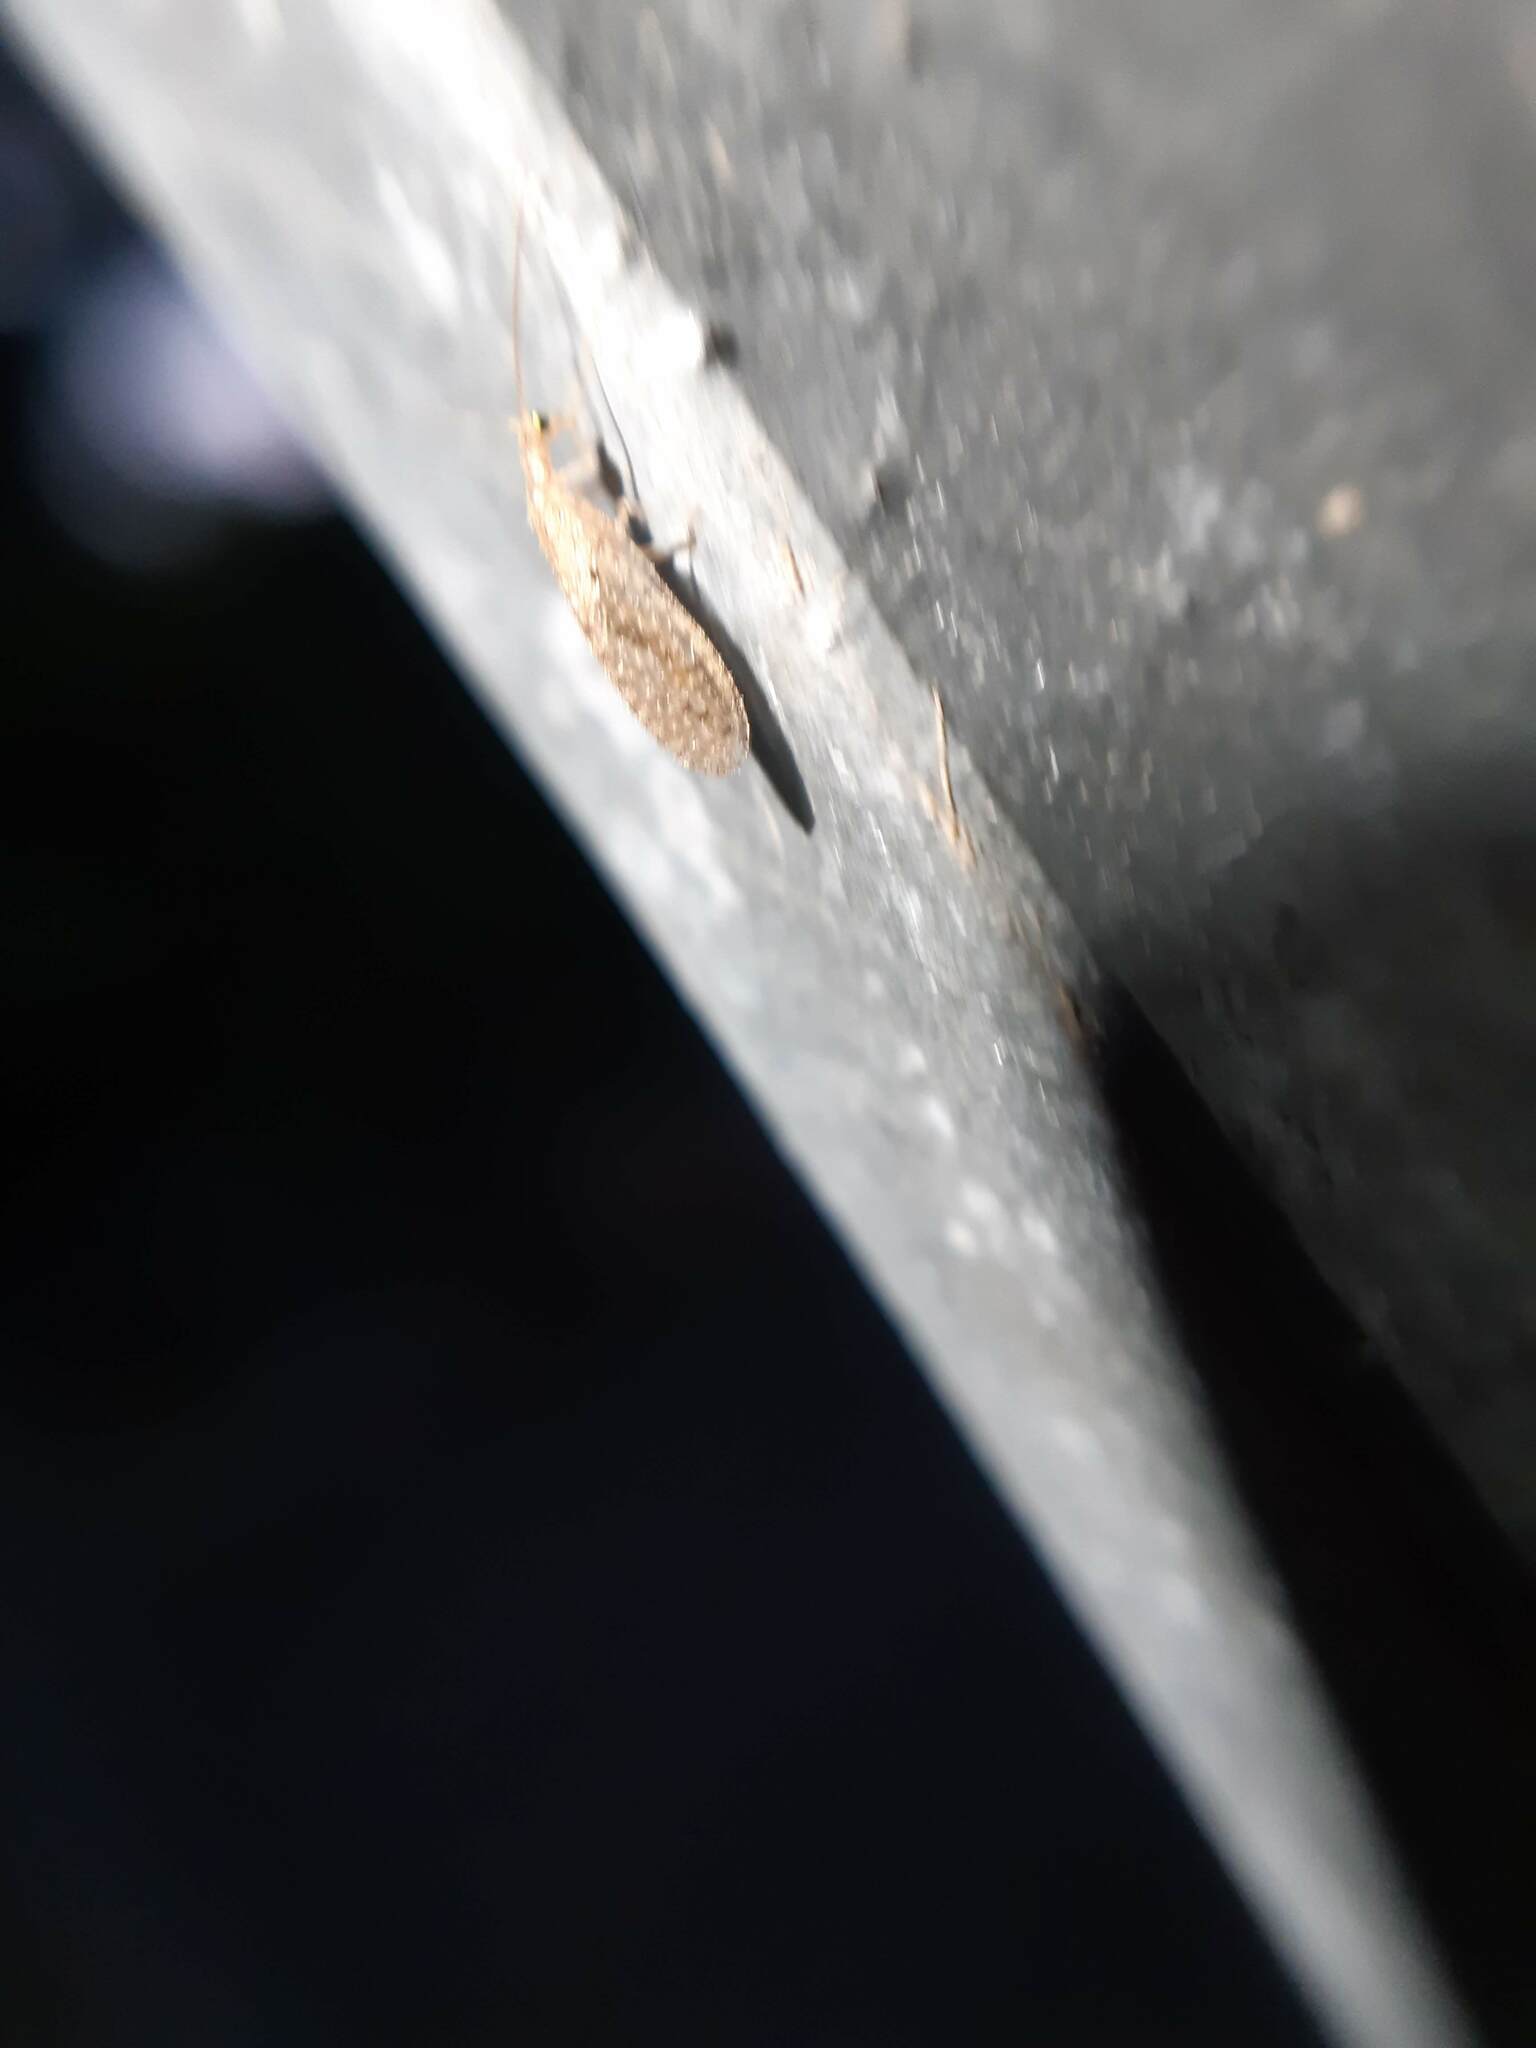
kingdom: Animalia
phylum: Arthropoda
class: Insecta
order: Neuroptera
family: Hemerobiidae
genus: Micromus
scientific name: Micromus tasmaniae
